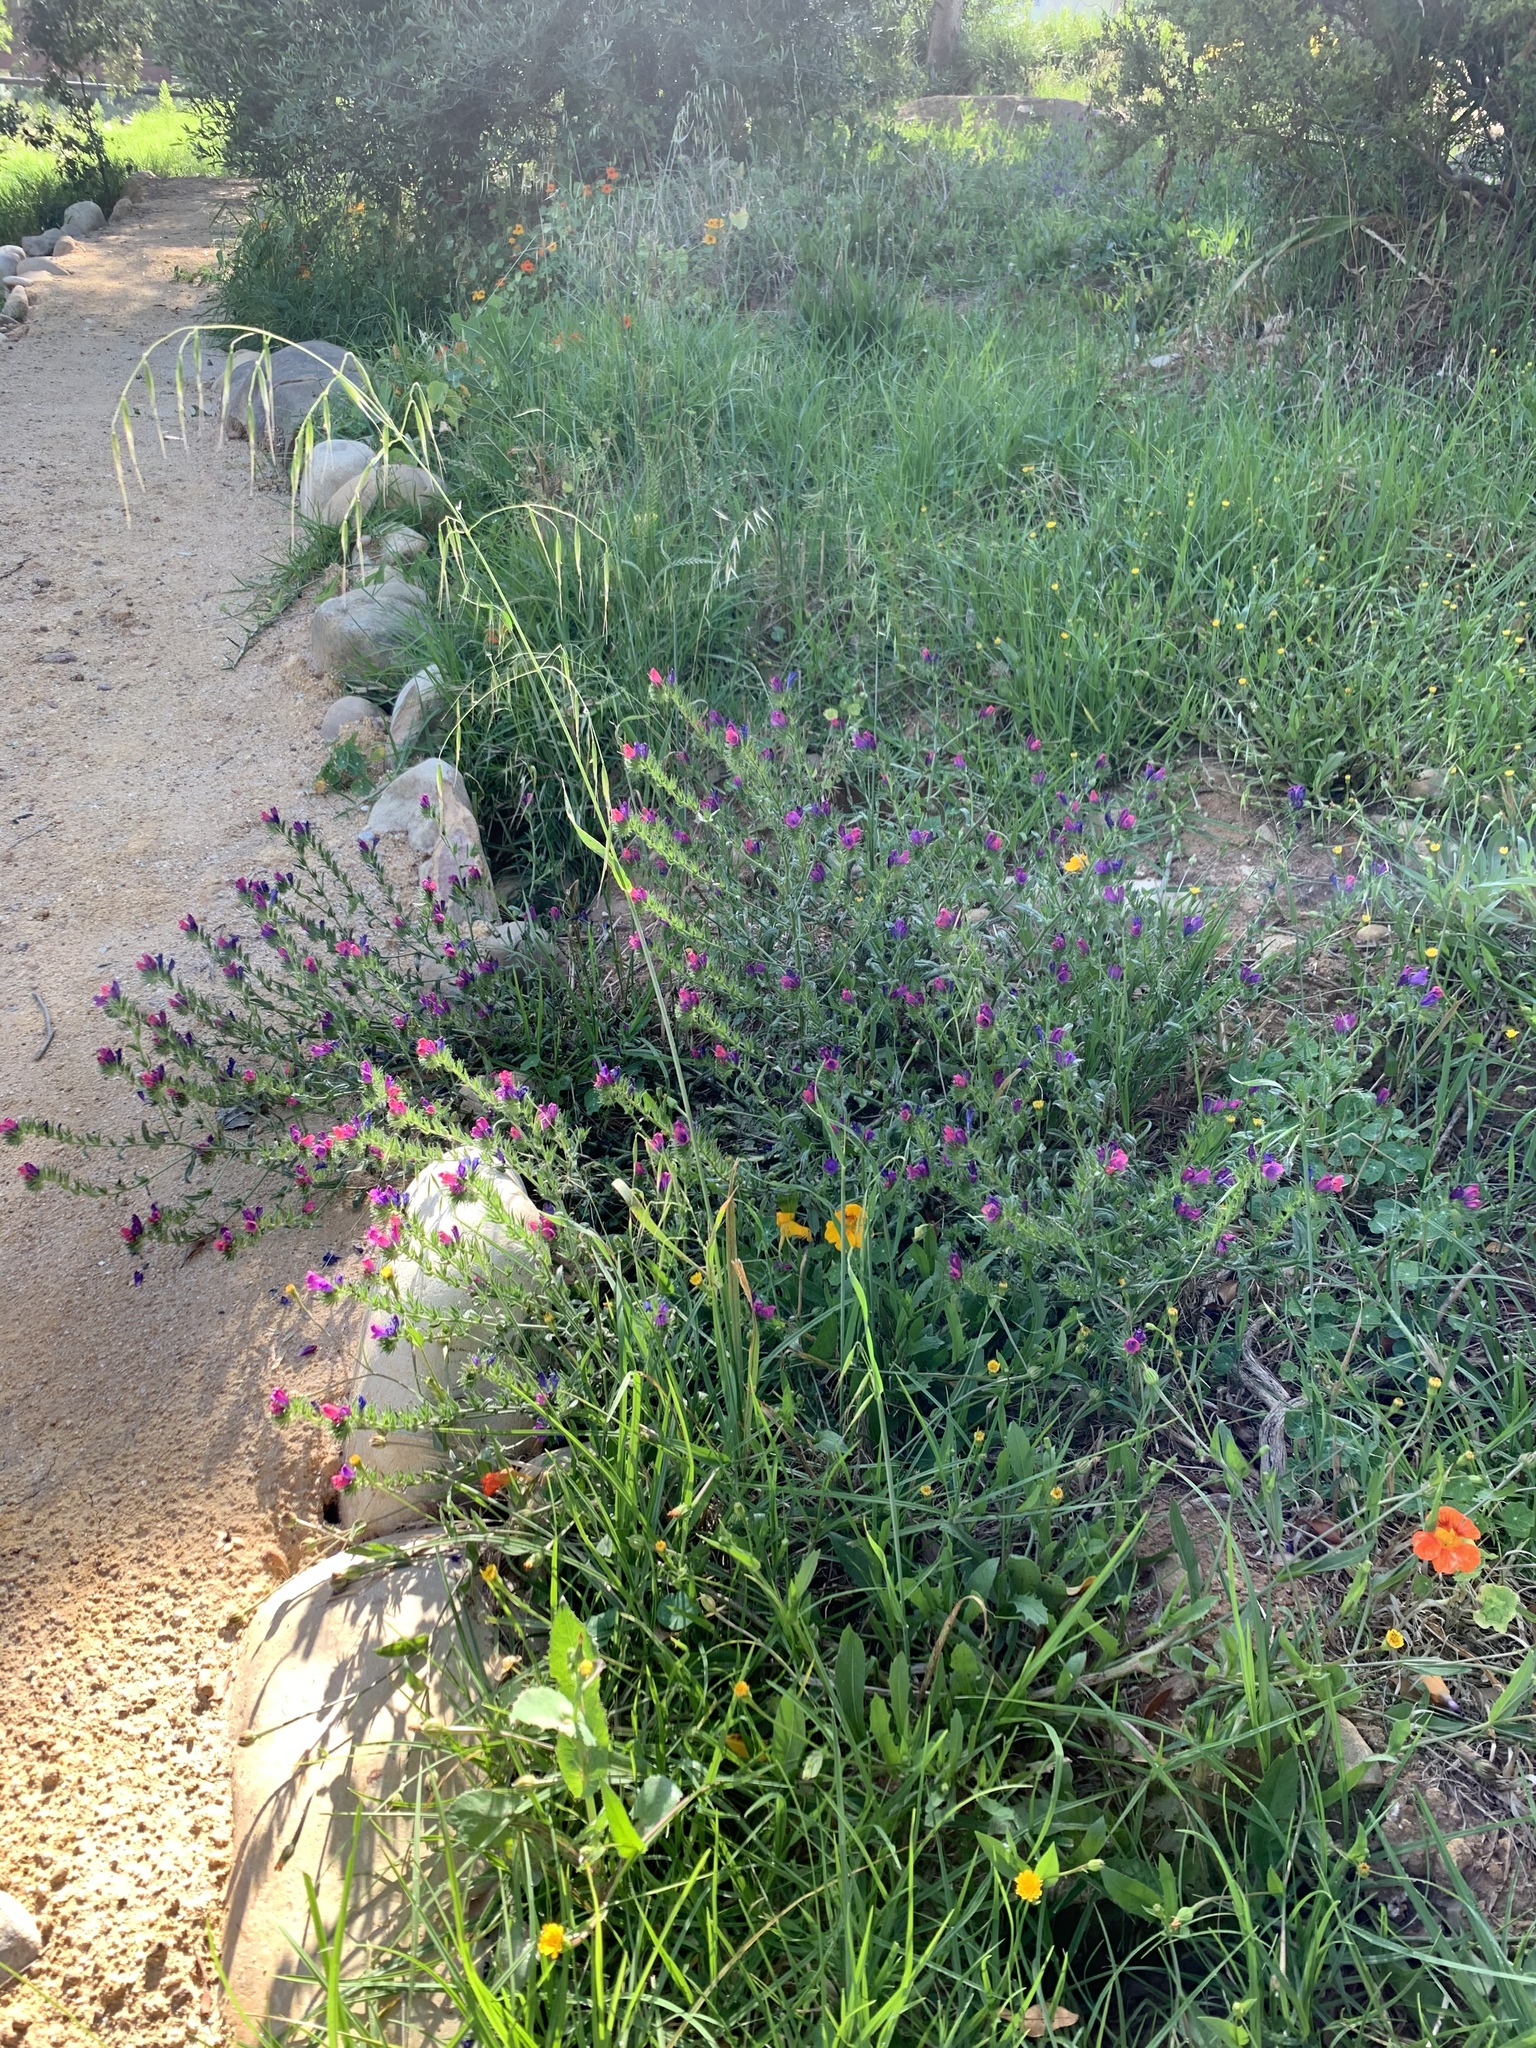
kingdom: Plantae
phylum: Tracheophyta
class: Magnoliopsida
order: Boraginales
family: Boraginaceae
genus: Echium
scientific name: Echium plantagineum
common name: Purple viper's-bugloss
